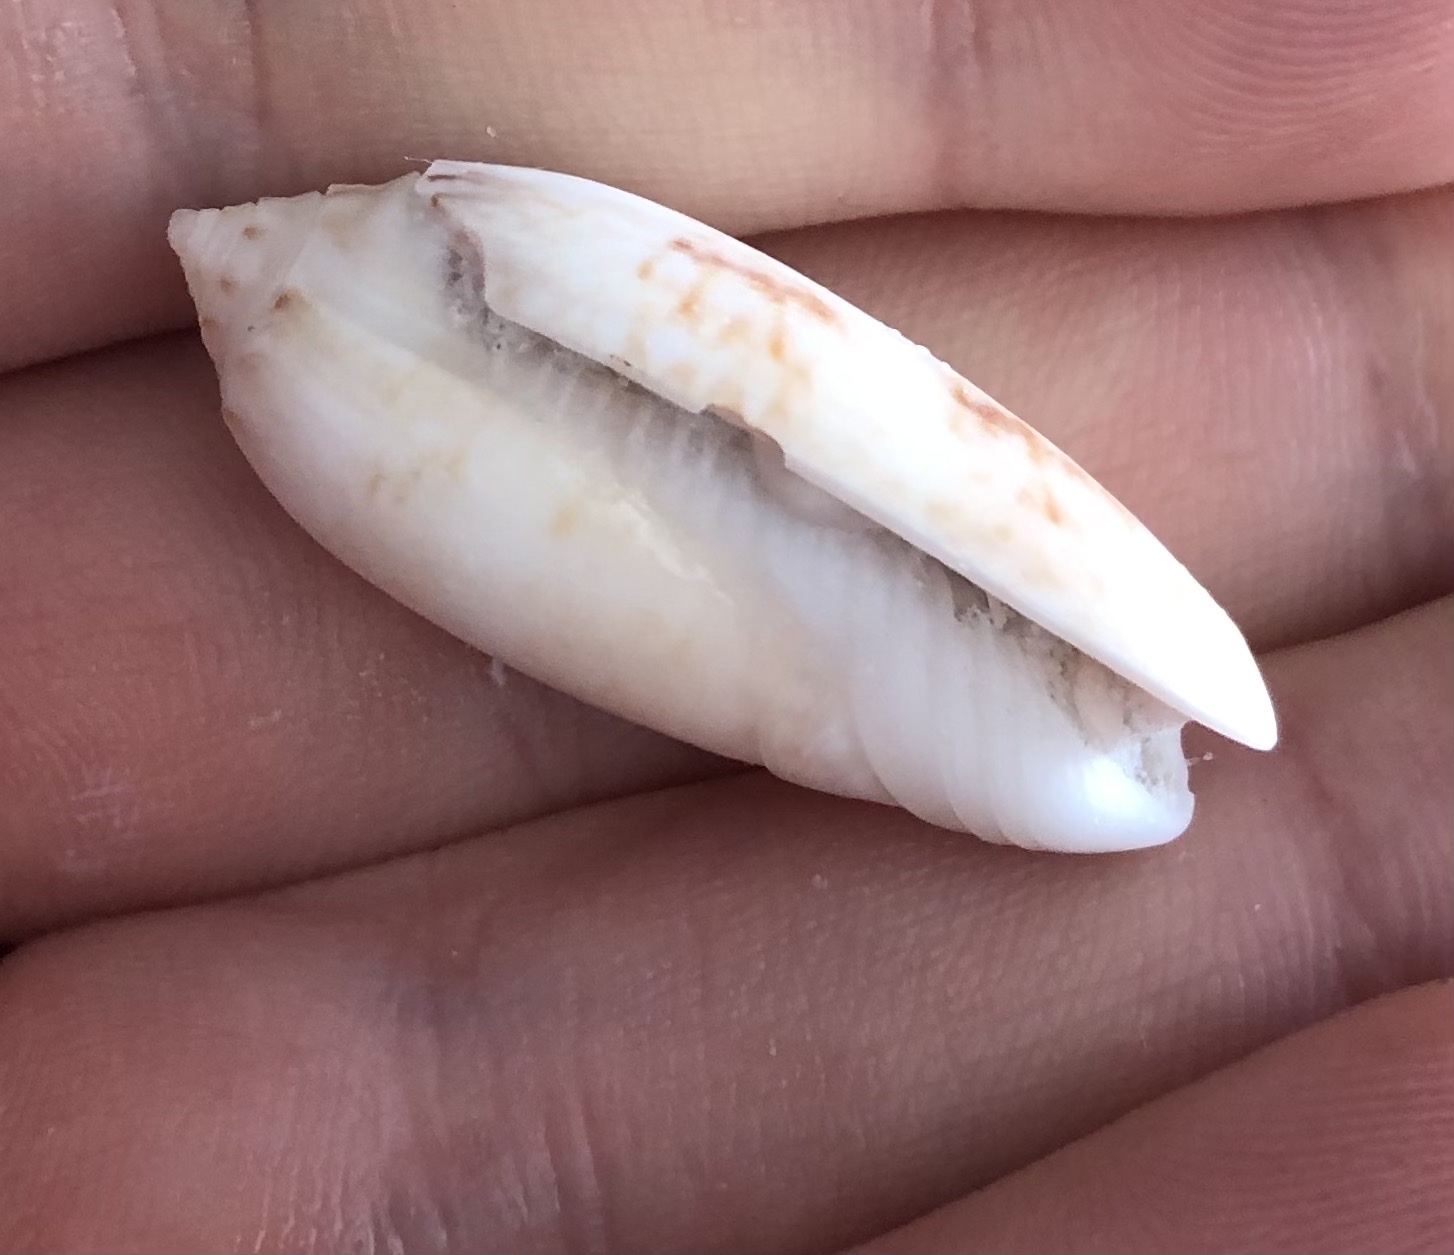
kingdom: Animalia
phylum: Mollusca
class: Gastropoda
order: Neogastropoda
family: Olividae
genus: Oliva
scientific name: Oliva sayana
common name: Lettered olive
